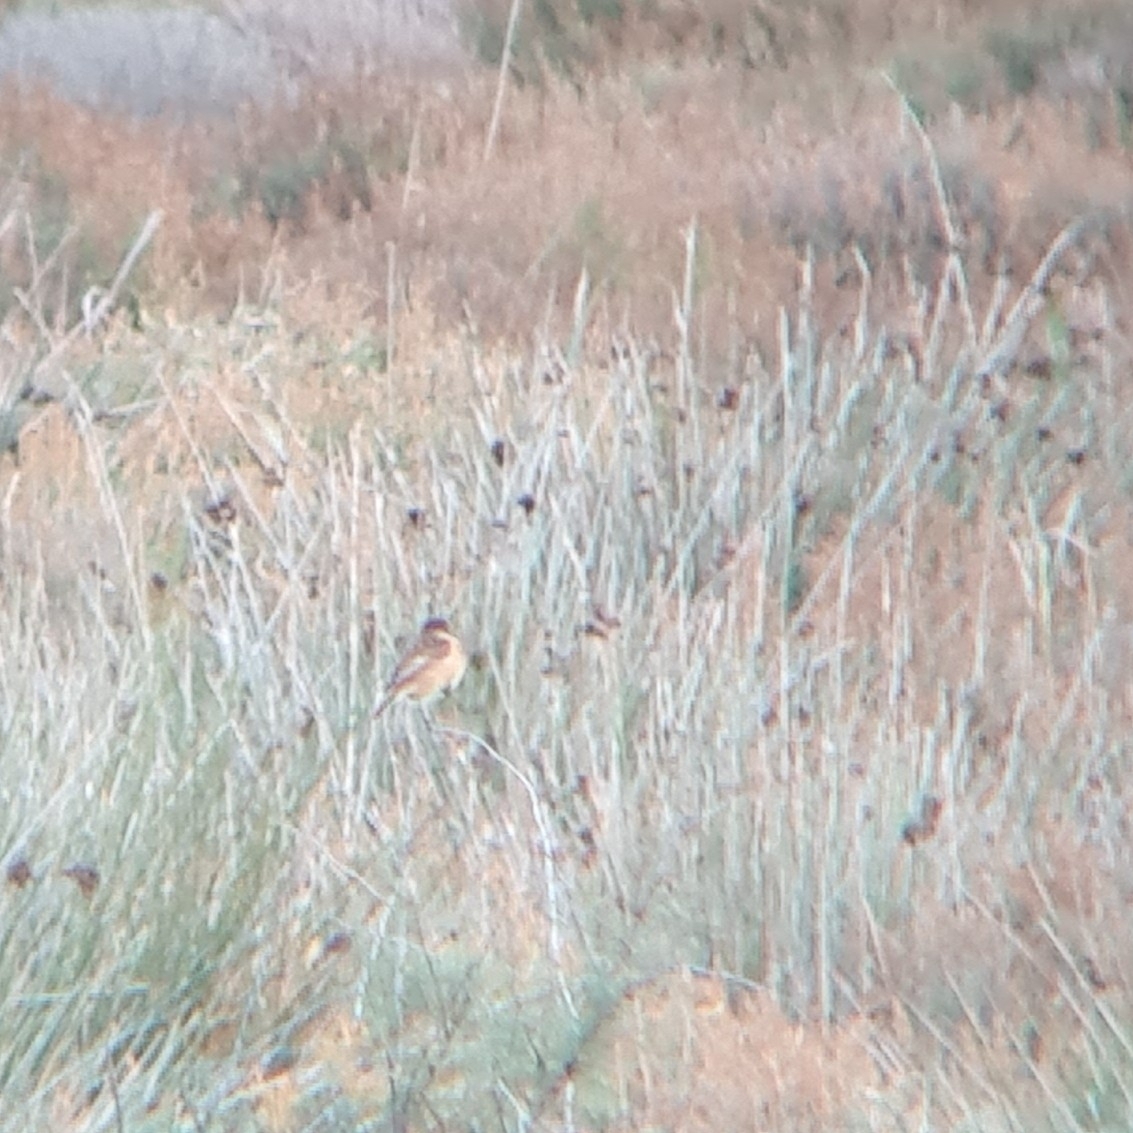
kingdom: Animalia
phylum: Chordata
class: Aves
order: Passeriformes
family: Muscicapidae
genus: Saxicola
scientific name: Saxicola rubicola
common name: European stonechat
